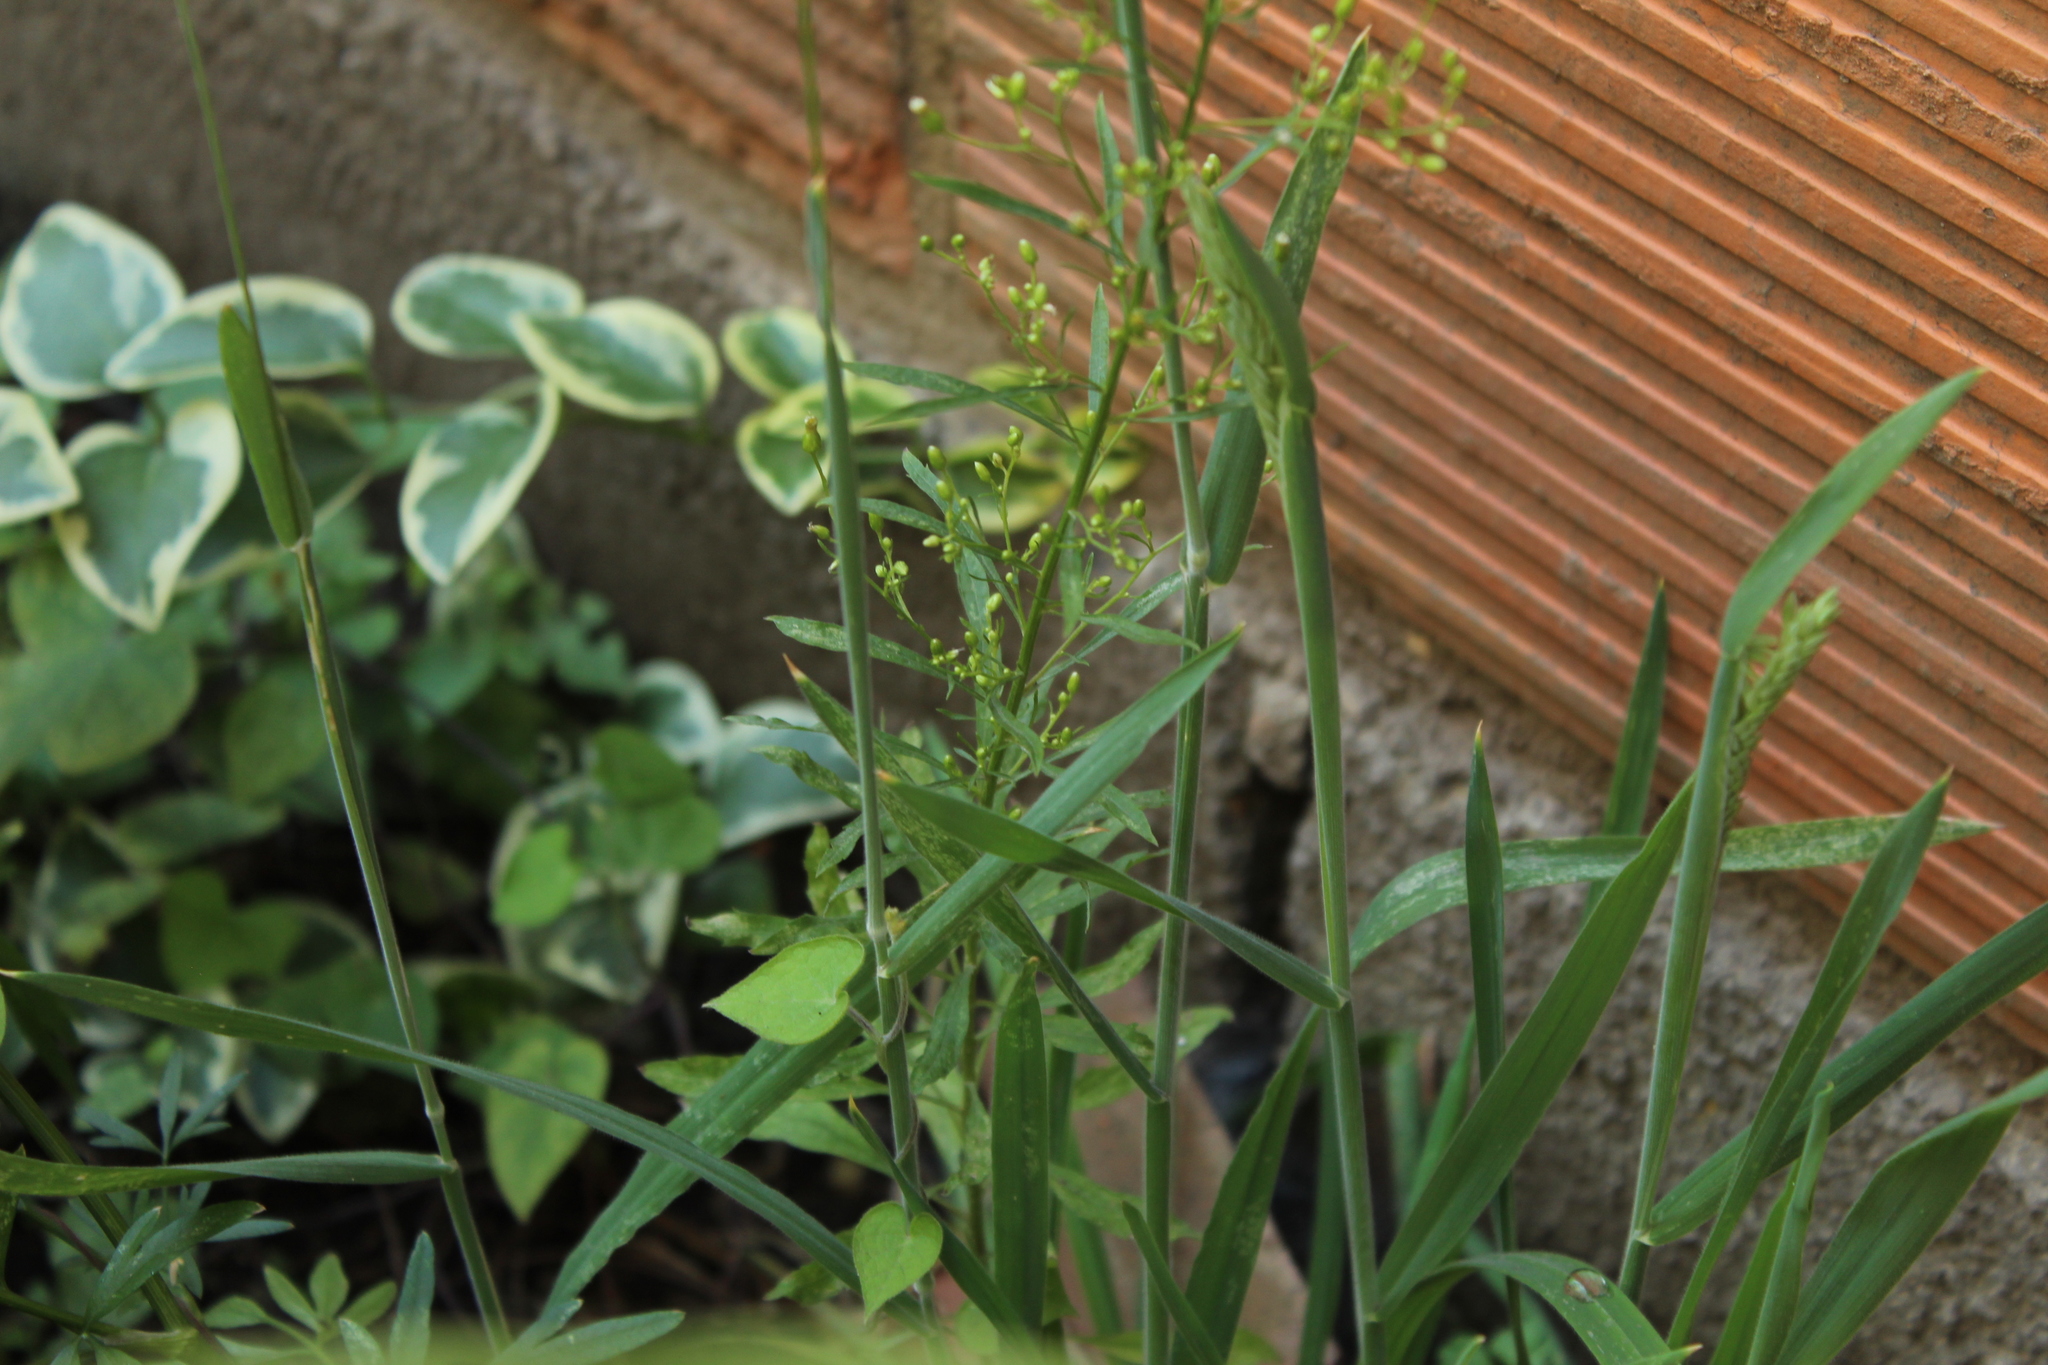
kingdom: Plantae
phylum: Tracheophyta
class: Magnoliopsida
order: Asterales
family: Asteraceae
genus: Erigeron
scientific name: Erigeron canadensis
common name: Canadian fleabane
